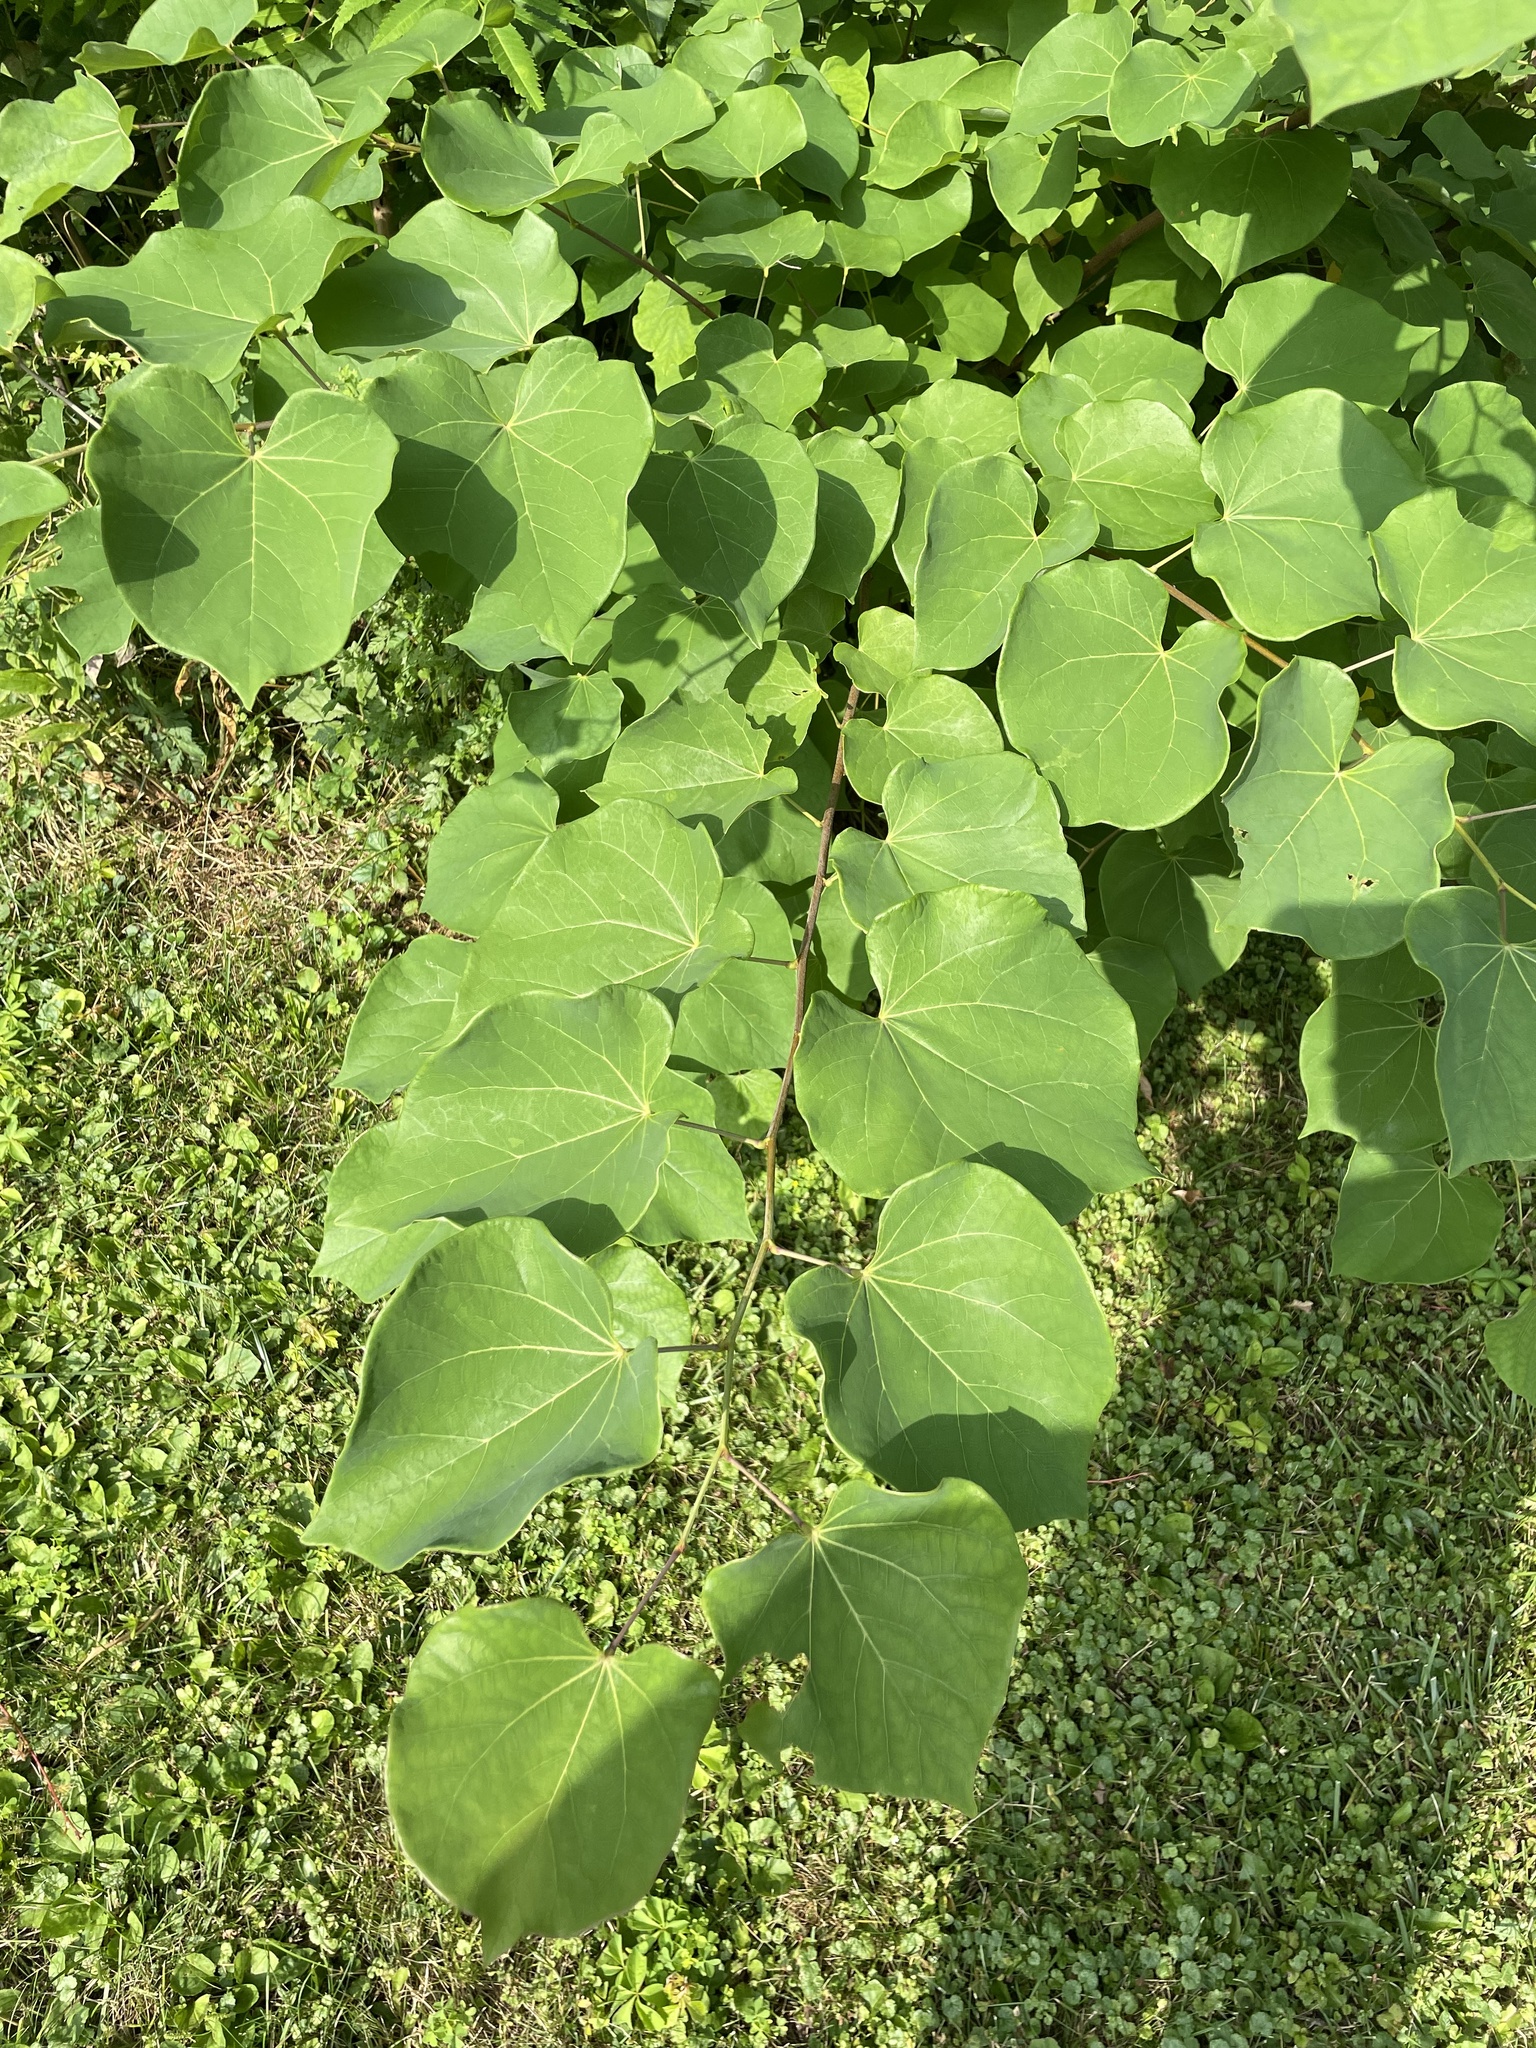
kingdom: Plantae
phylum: Tracheophyta
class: Magnoliopsida
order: Fabales
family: Fabaceae
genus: Cercis
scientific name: Cercis canadensis
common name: Eastern redbud
